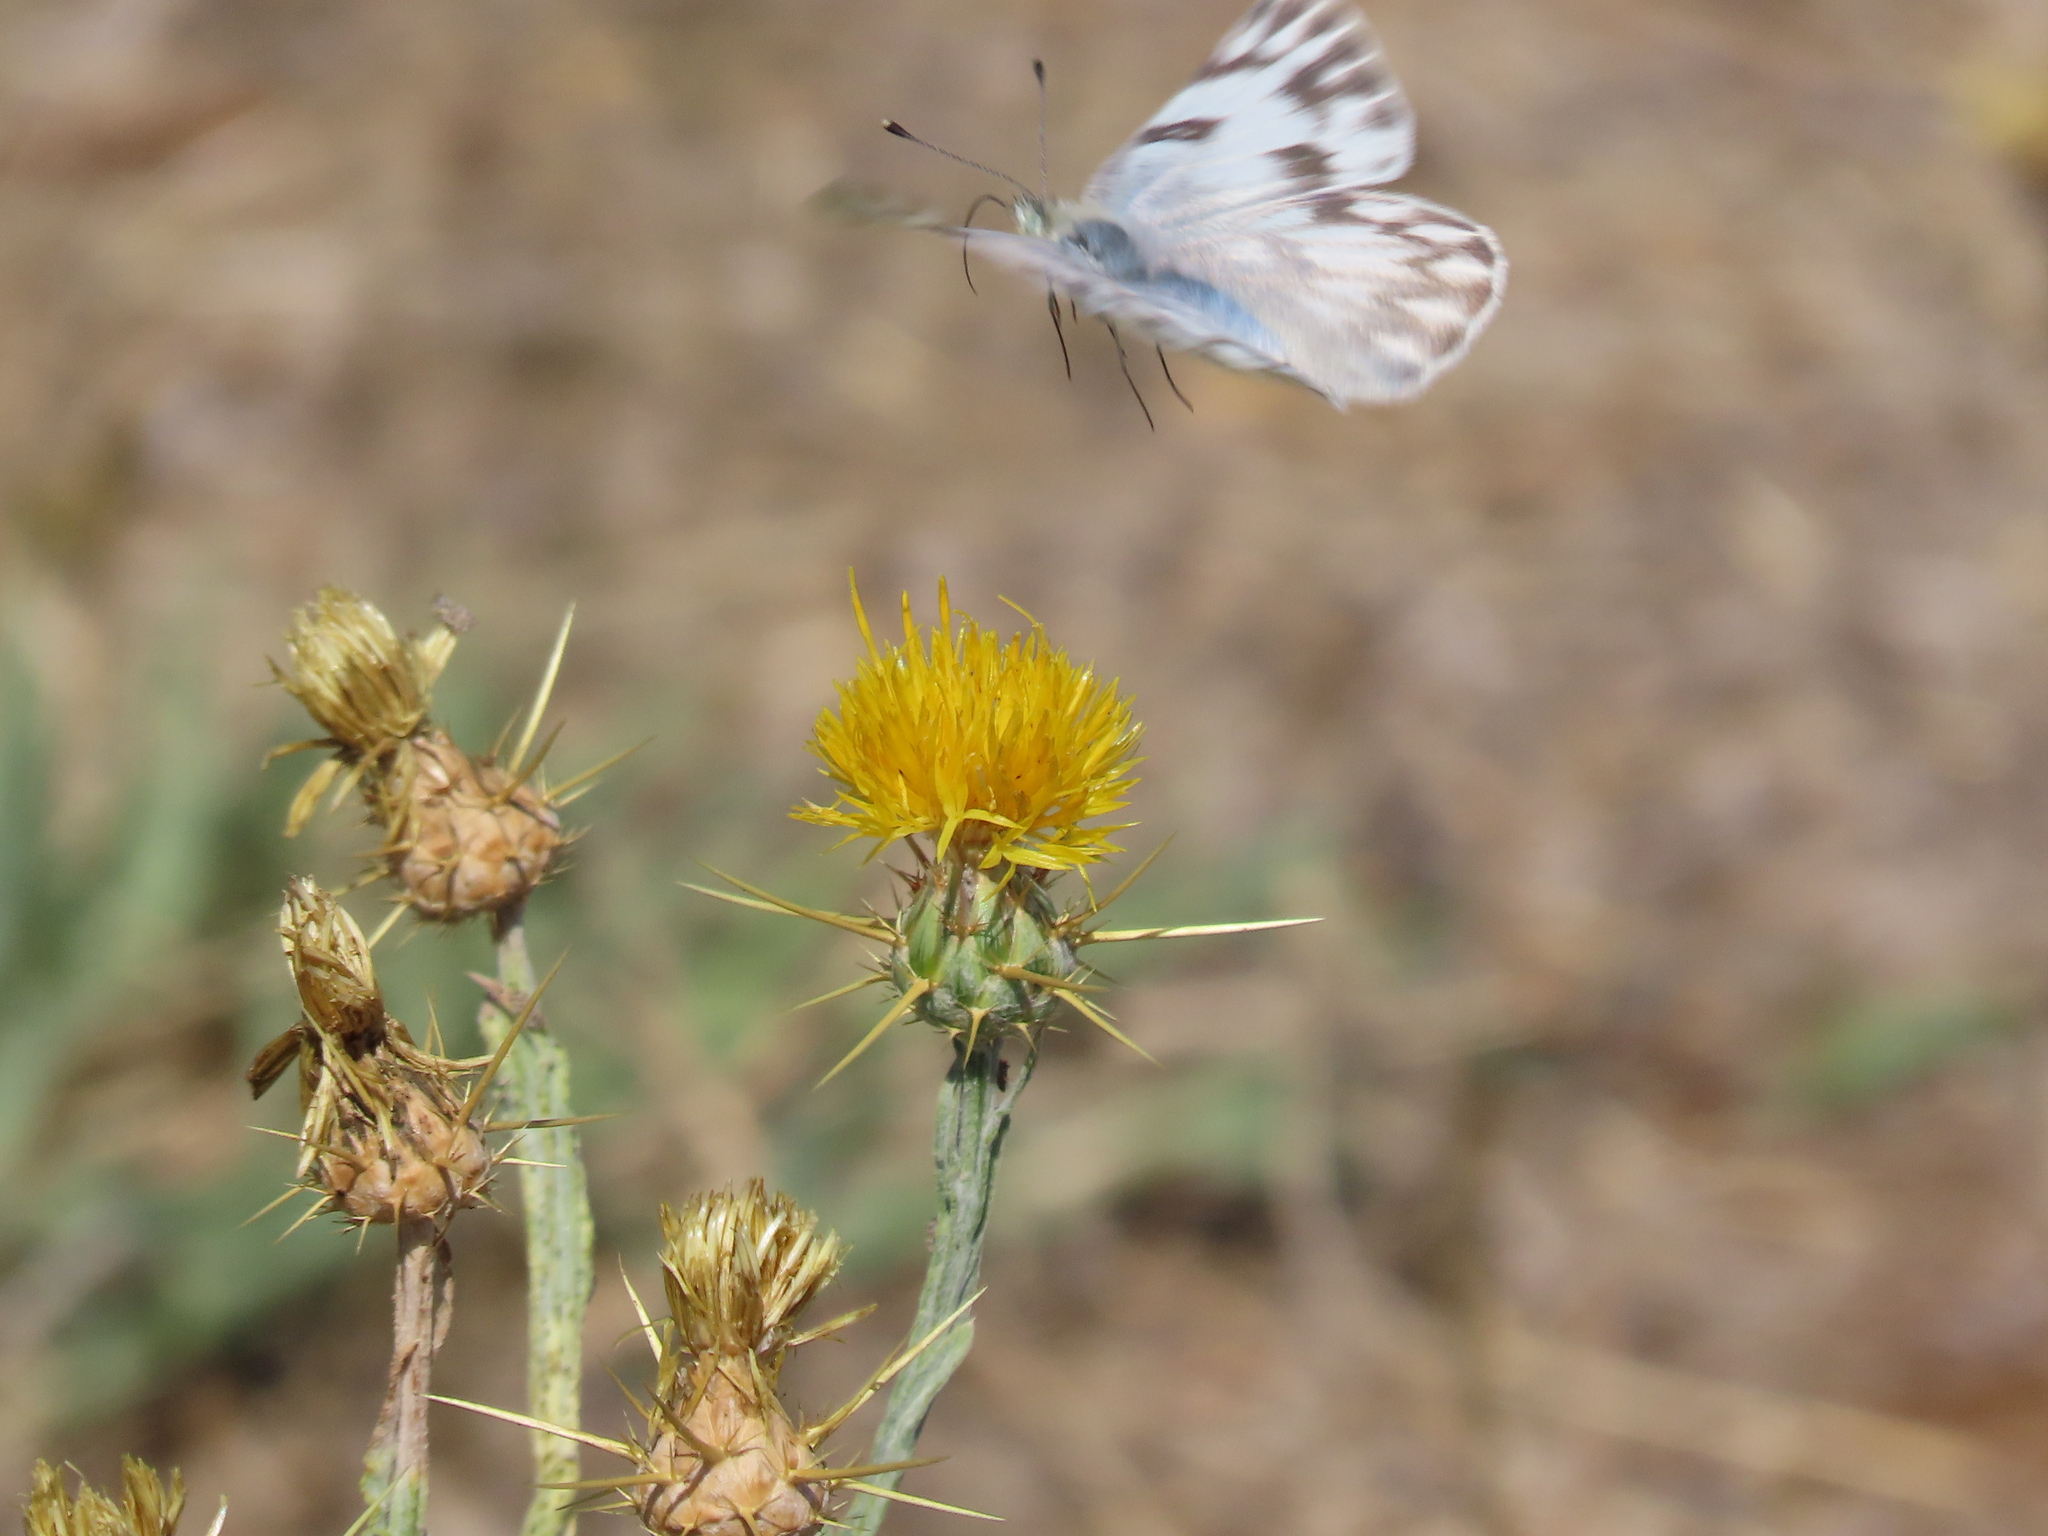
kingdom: Animalia
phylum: Arthropoda
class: Insecta
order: Lepidoptera
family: Pieridae
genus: Pontia
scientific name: Pontia protodice
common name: Checkered white
